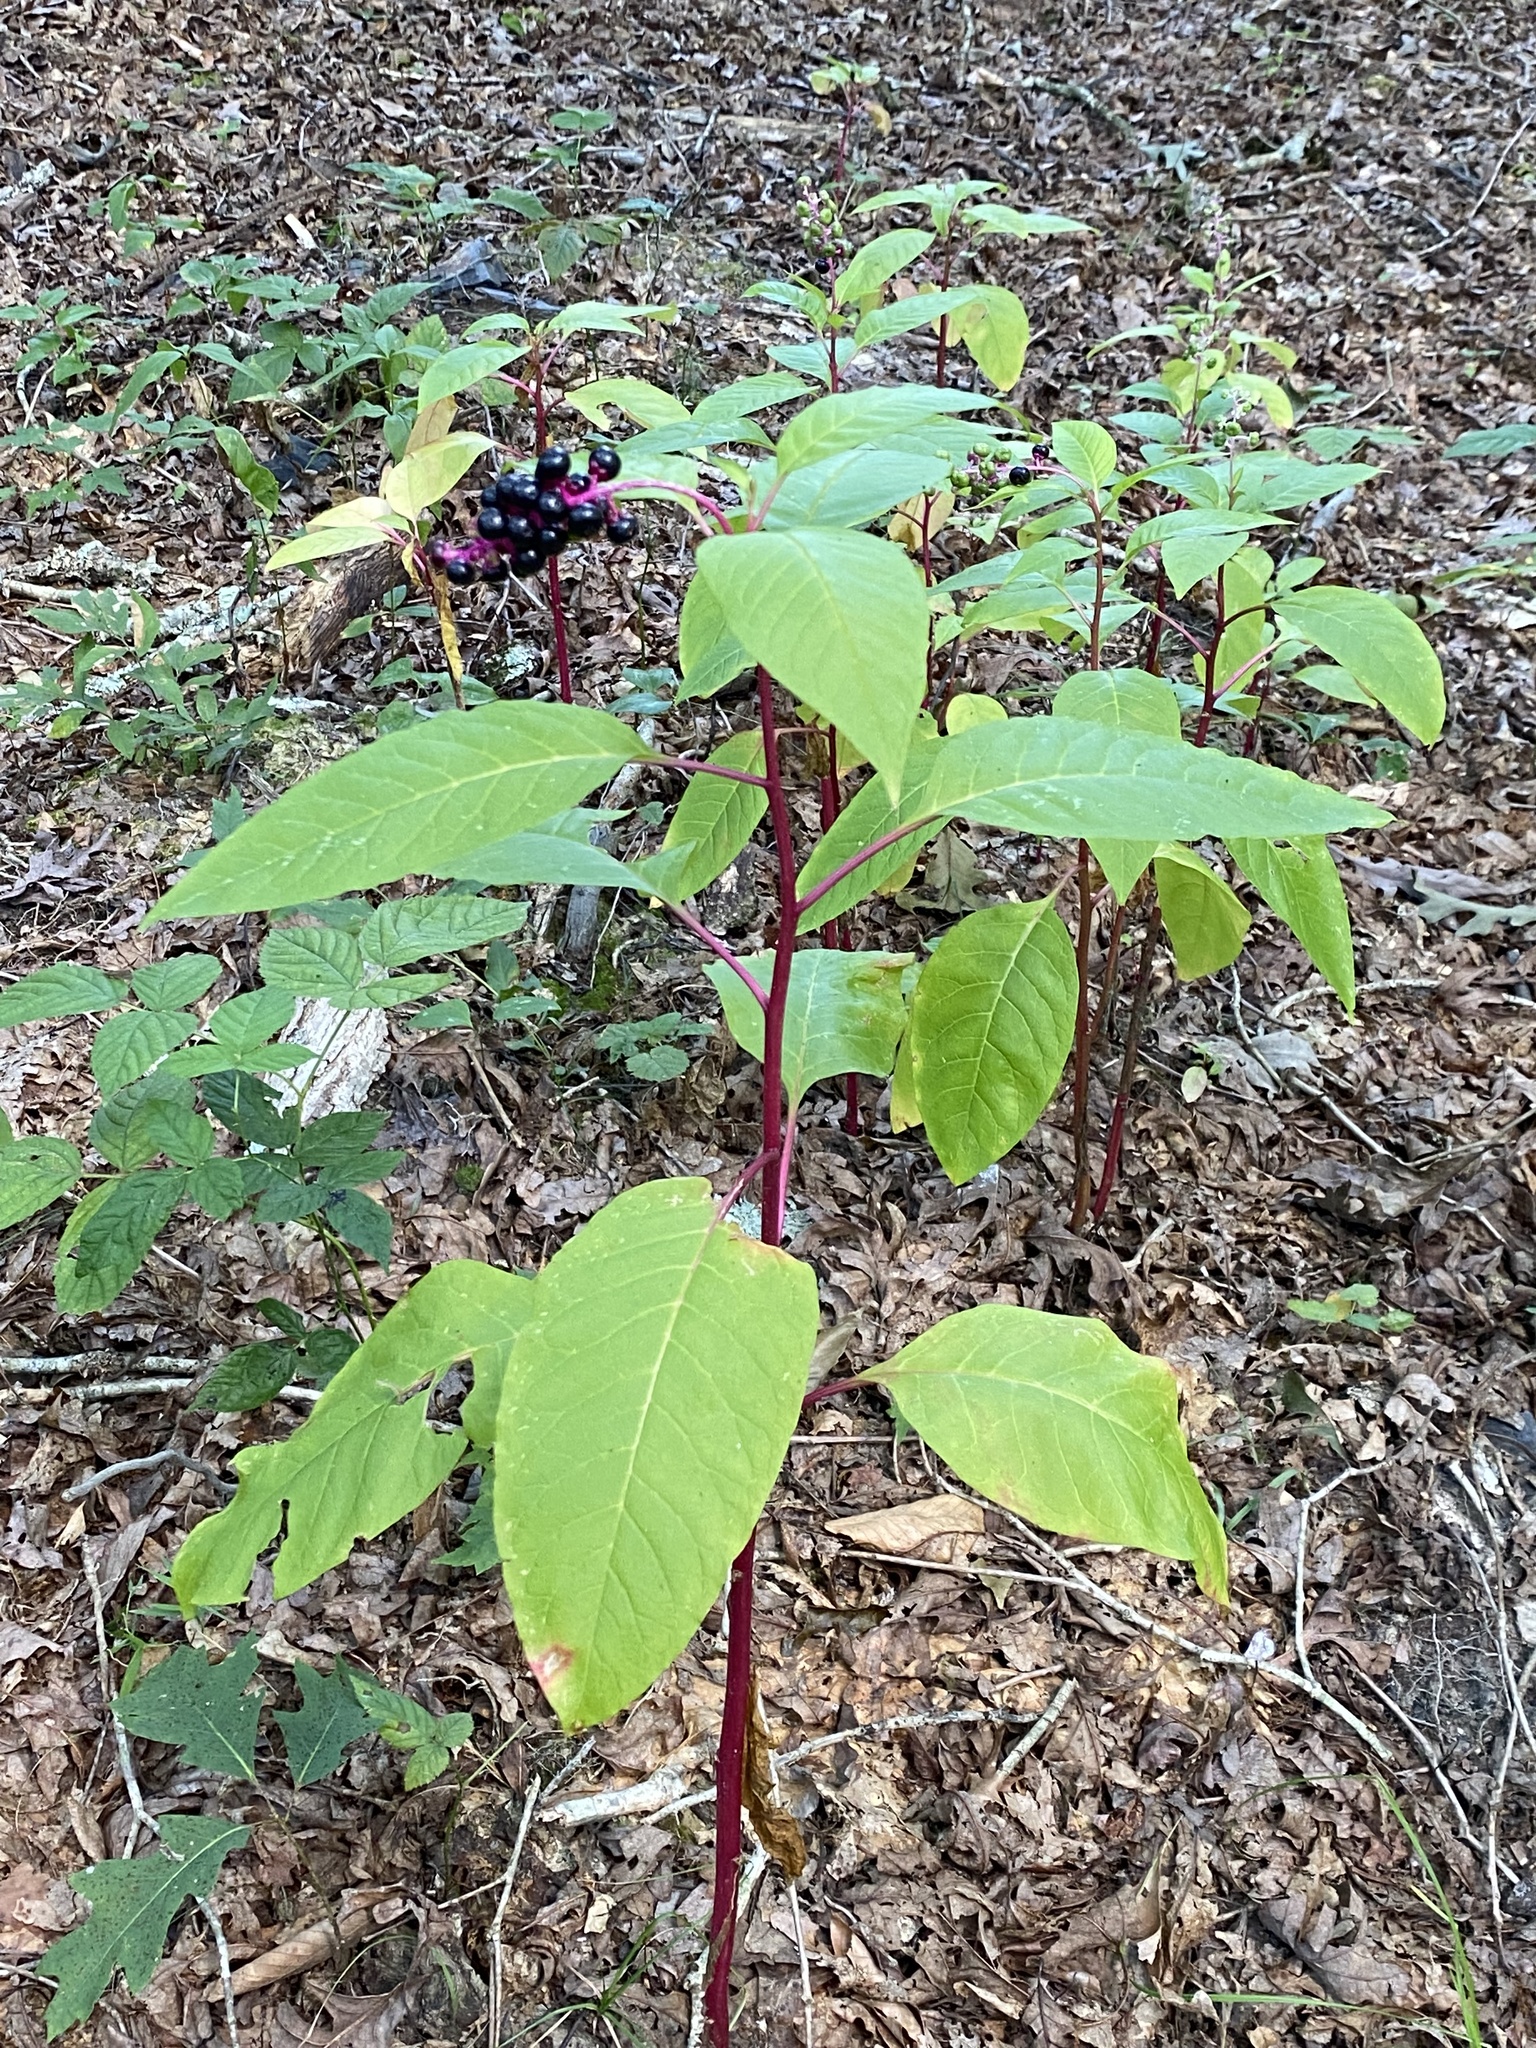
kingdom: Plantae
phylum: Tracheophyta
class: Magnoliopsida
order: Caryophyllales
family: Phytolaccaceae
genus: Phytolacca
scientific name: Phytolacca americana
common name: American pokeweed
